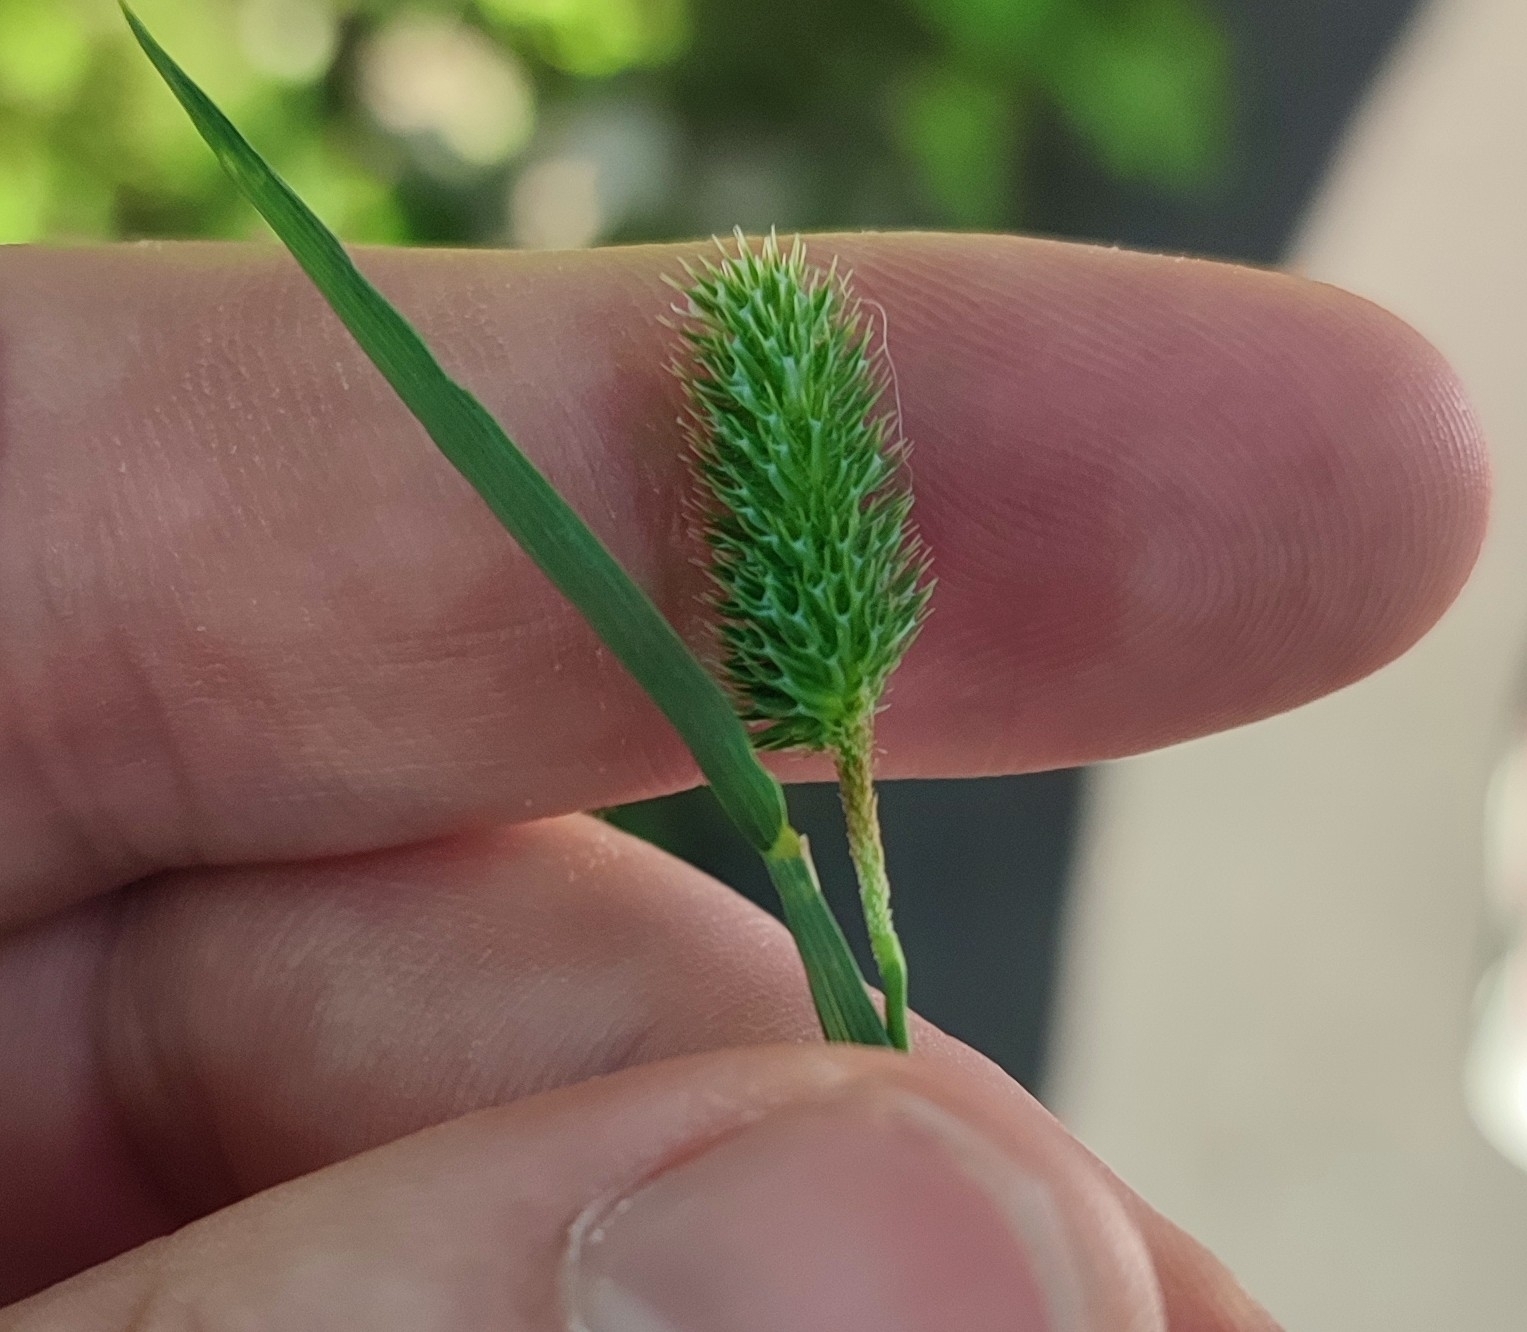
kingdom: Plantae
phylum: Tracheophyta
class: Liliopsida
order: Poales
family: Poaceae
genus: Phleum
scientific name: Phleum pratense
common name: Timothy grass
